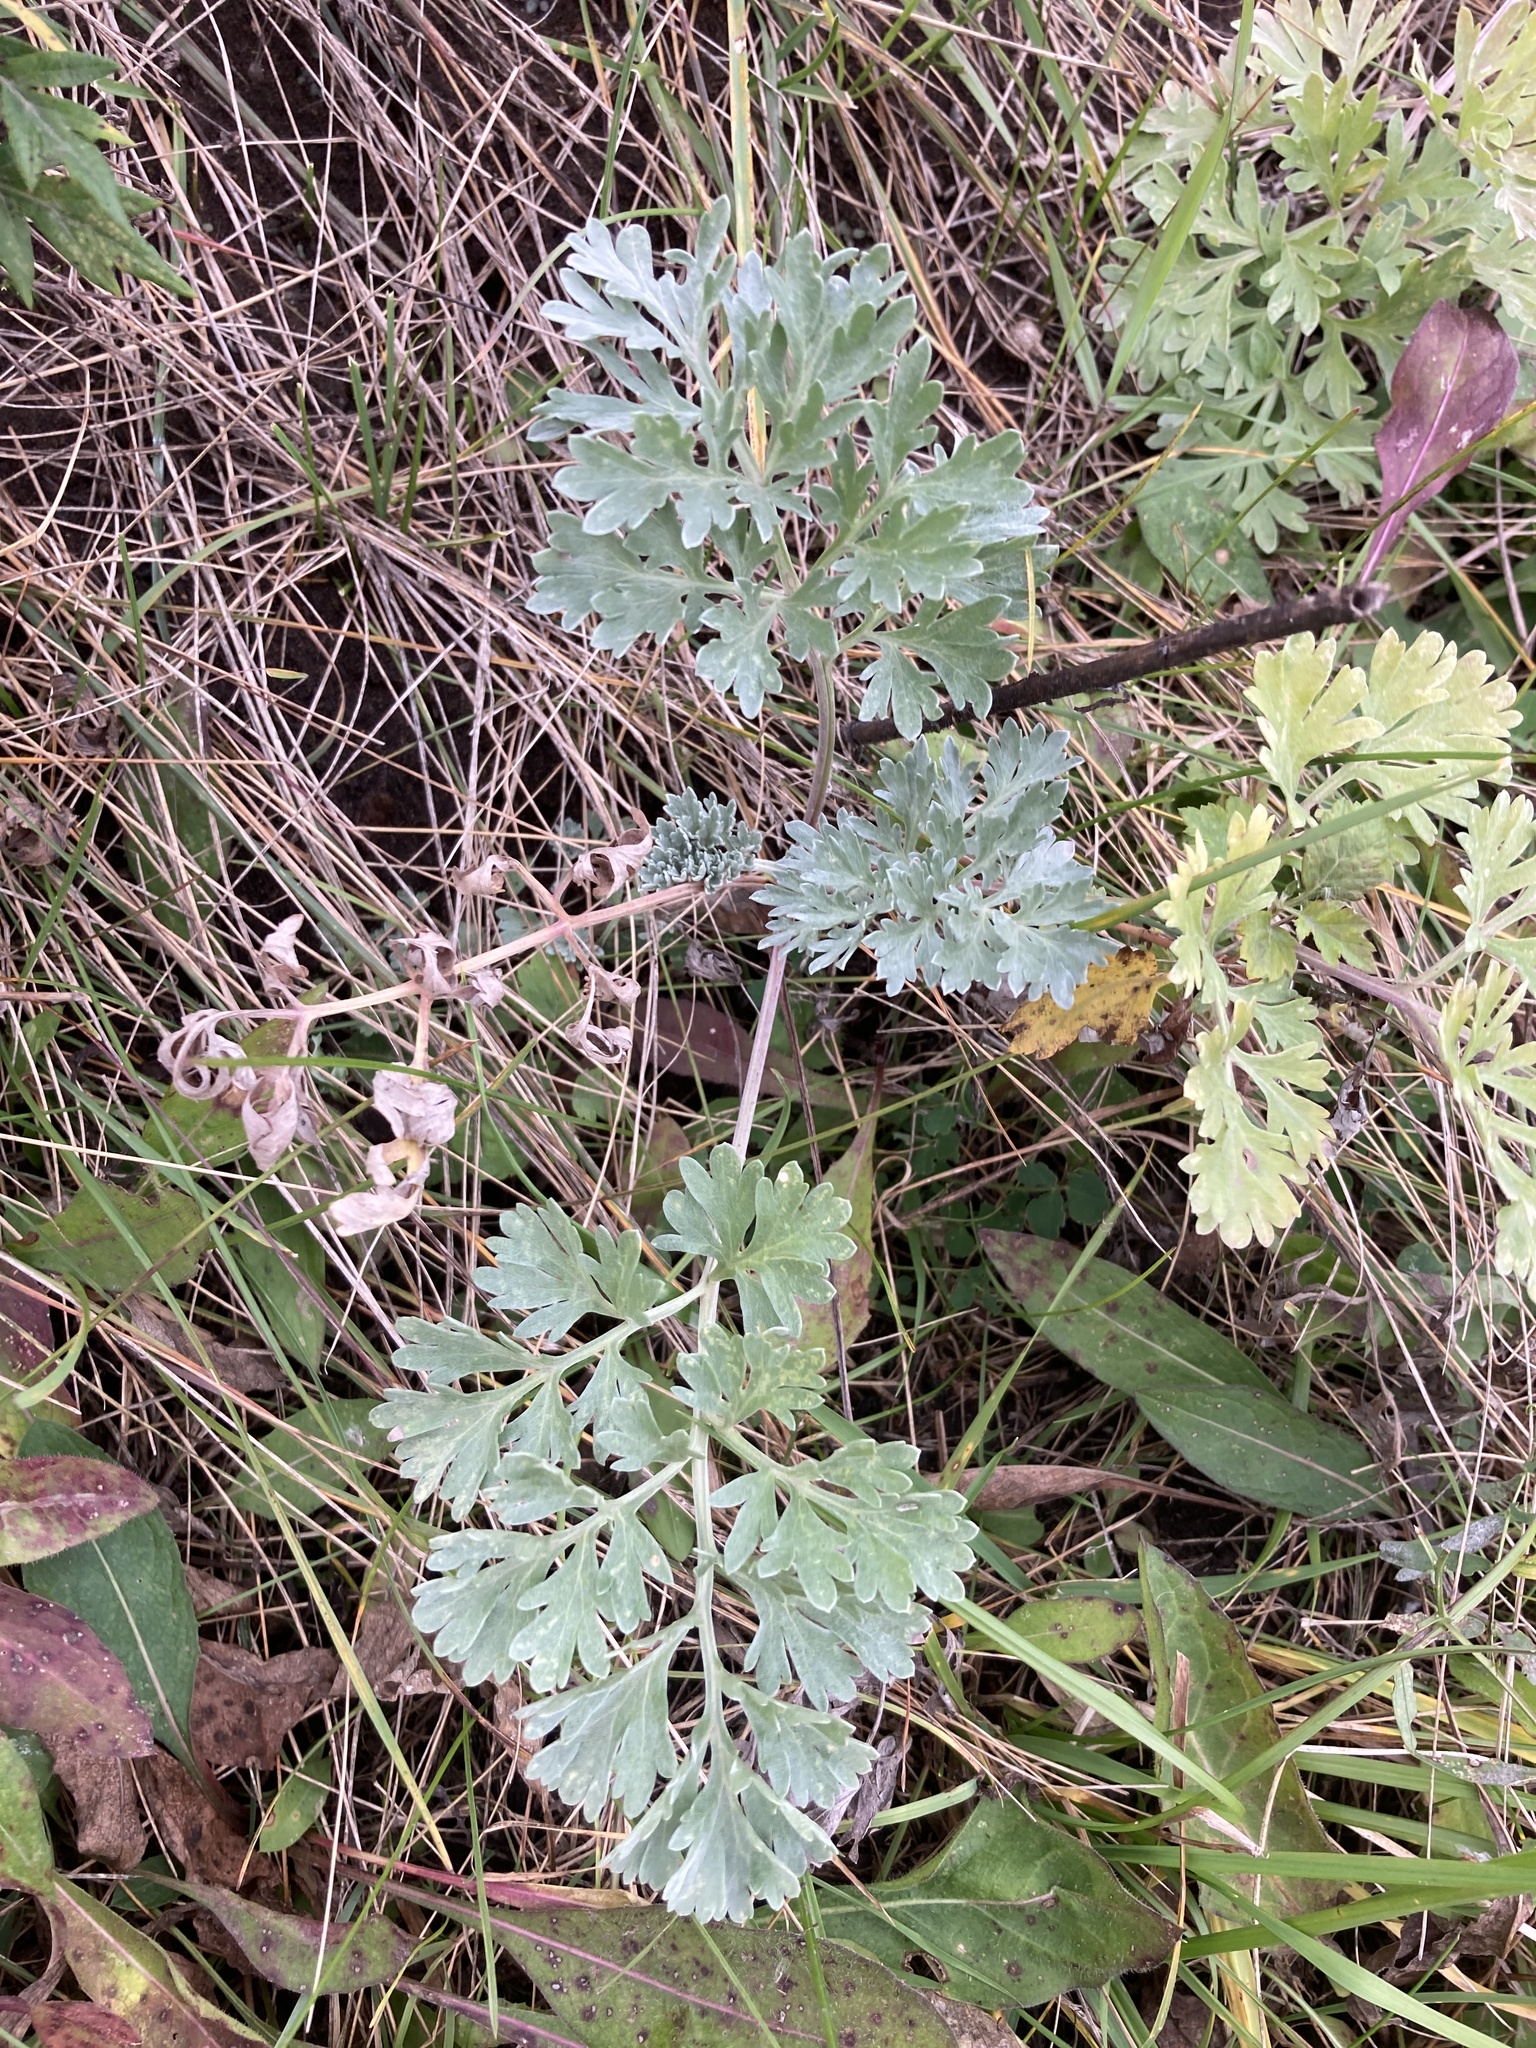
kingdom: Plantae
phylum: Tracheophyta
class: Magnoliopsida
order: Asterales
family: Asteraceae
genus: Artemisia
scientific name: Artemisia absinthium
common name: Wormwood
